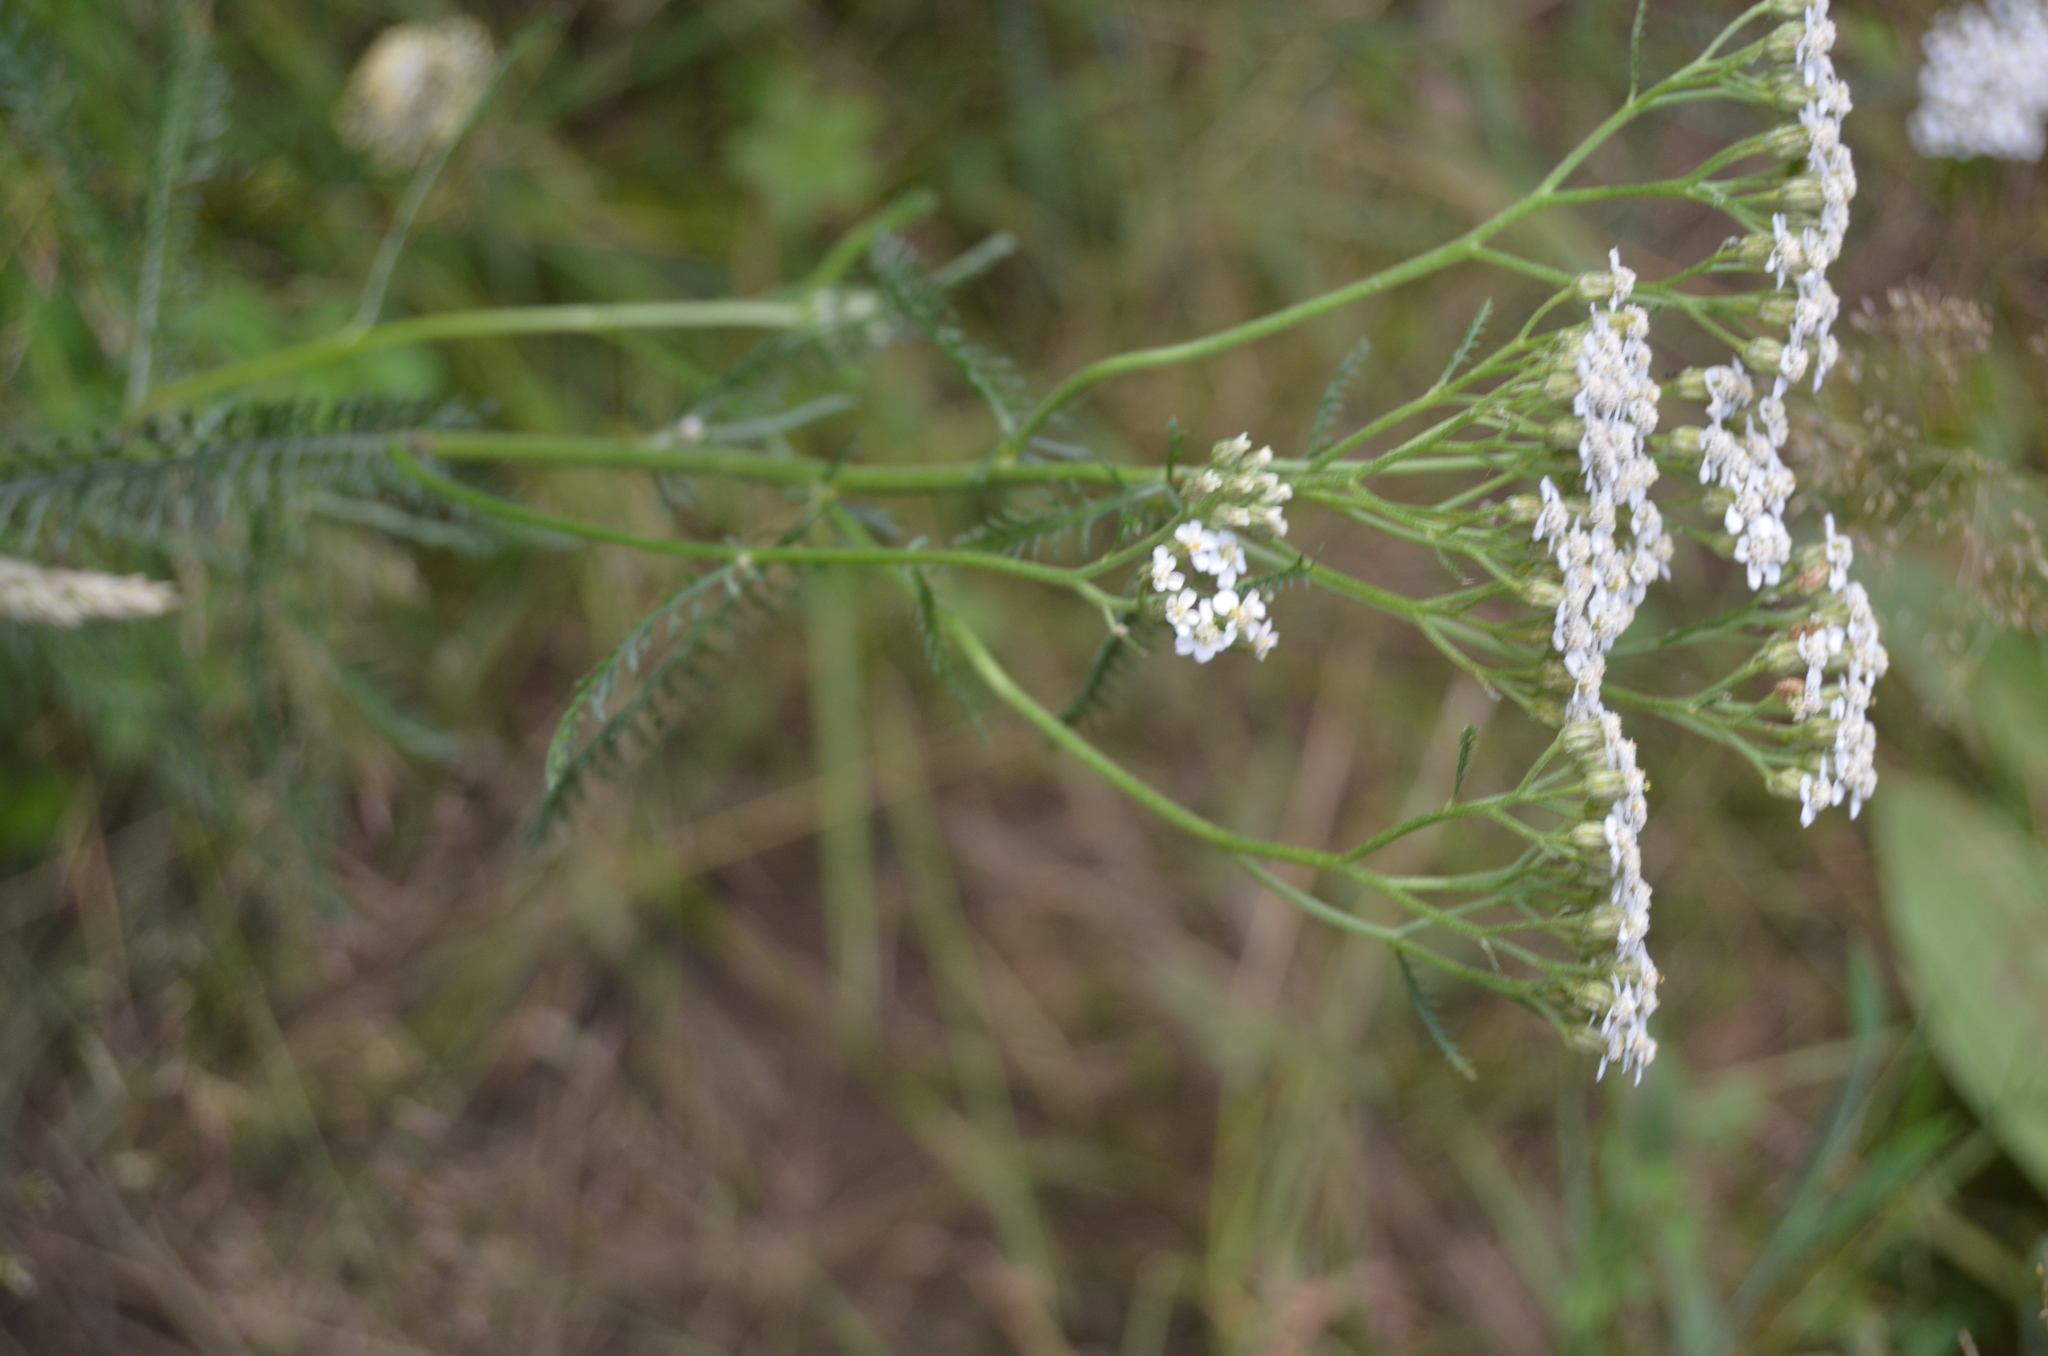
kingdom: Plantae
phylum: Tracheophyta
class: Magnoliopsida
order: Asterales
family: Asteraceae
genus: Achillea
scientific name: Achillea millefolium
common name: Yarrow
